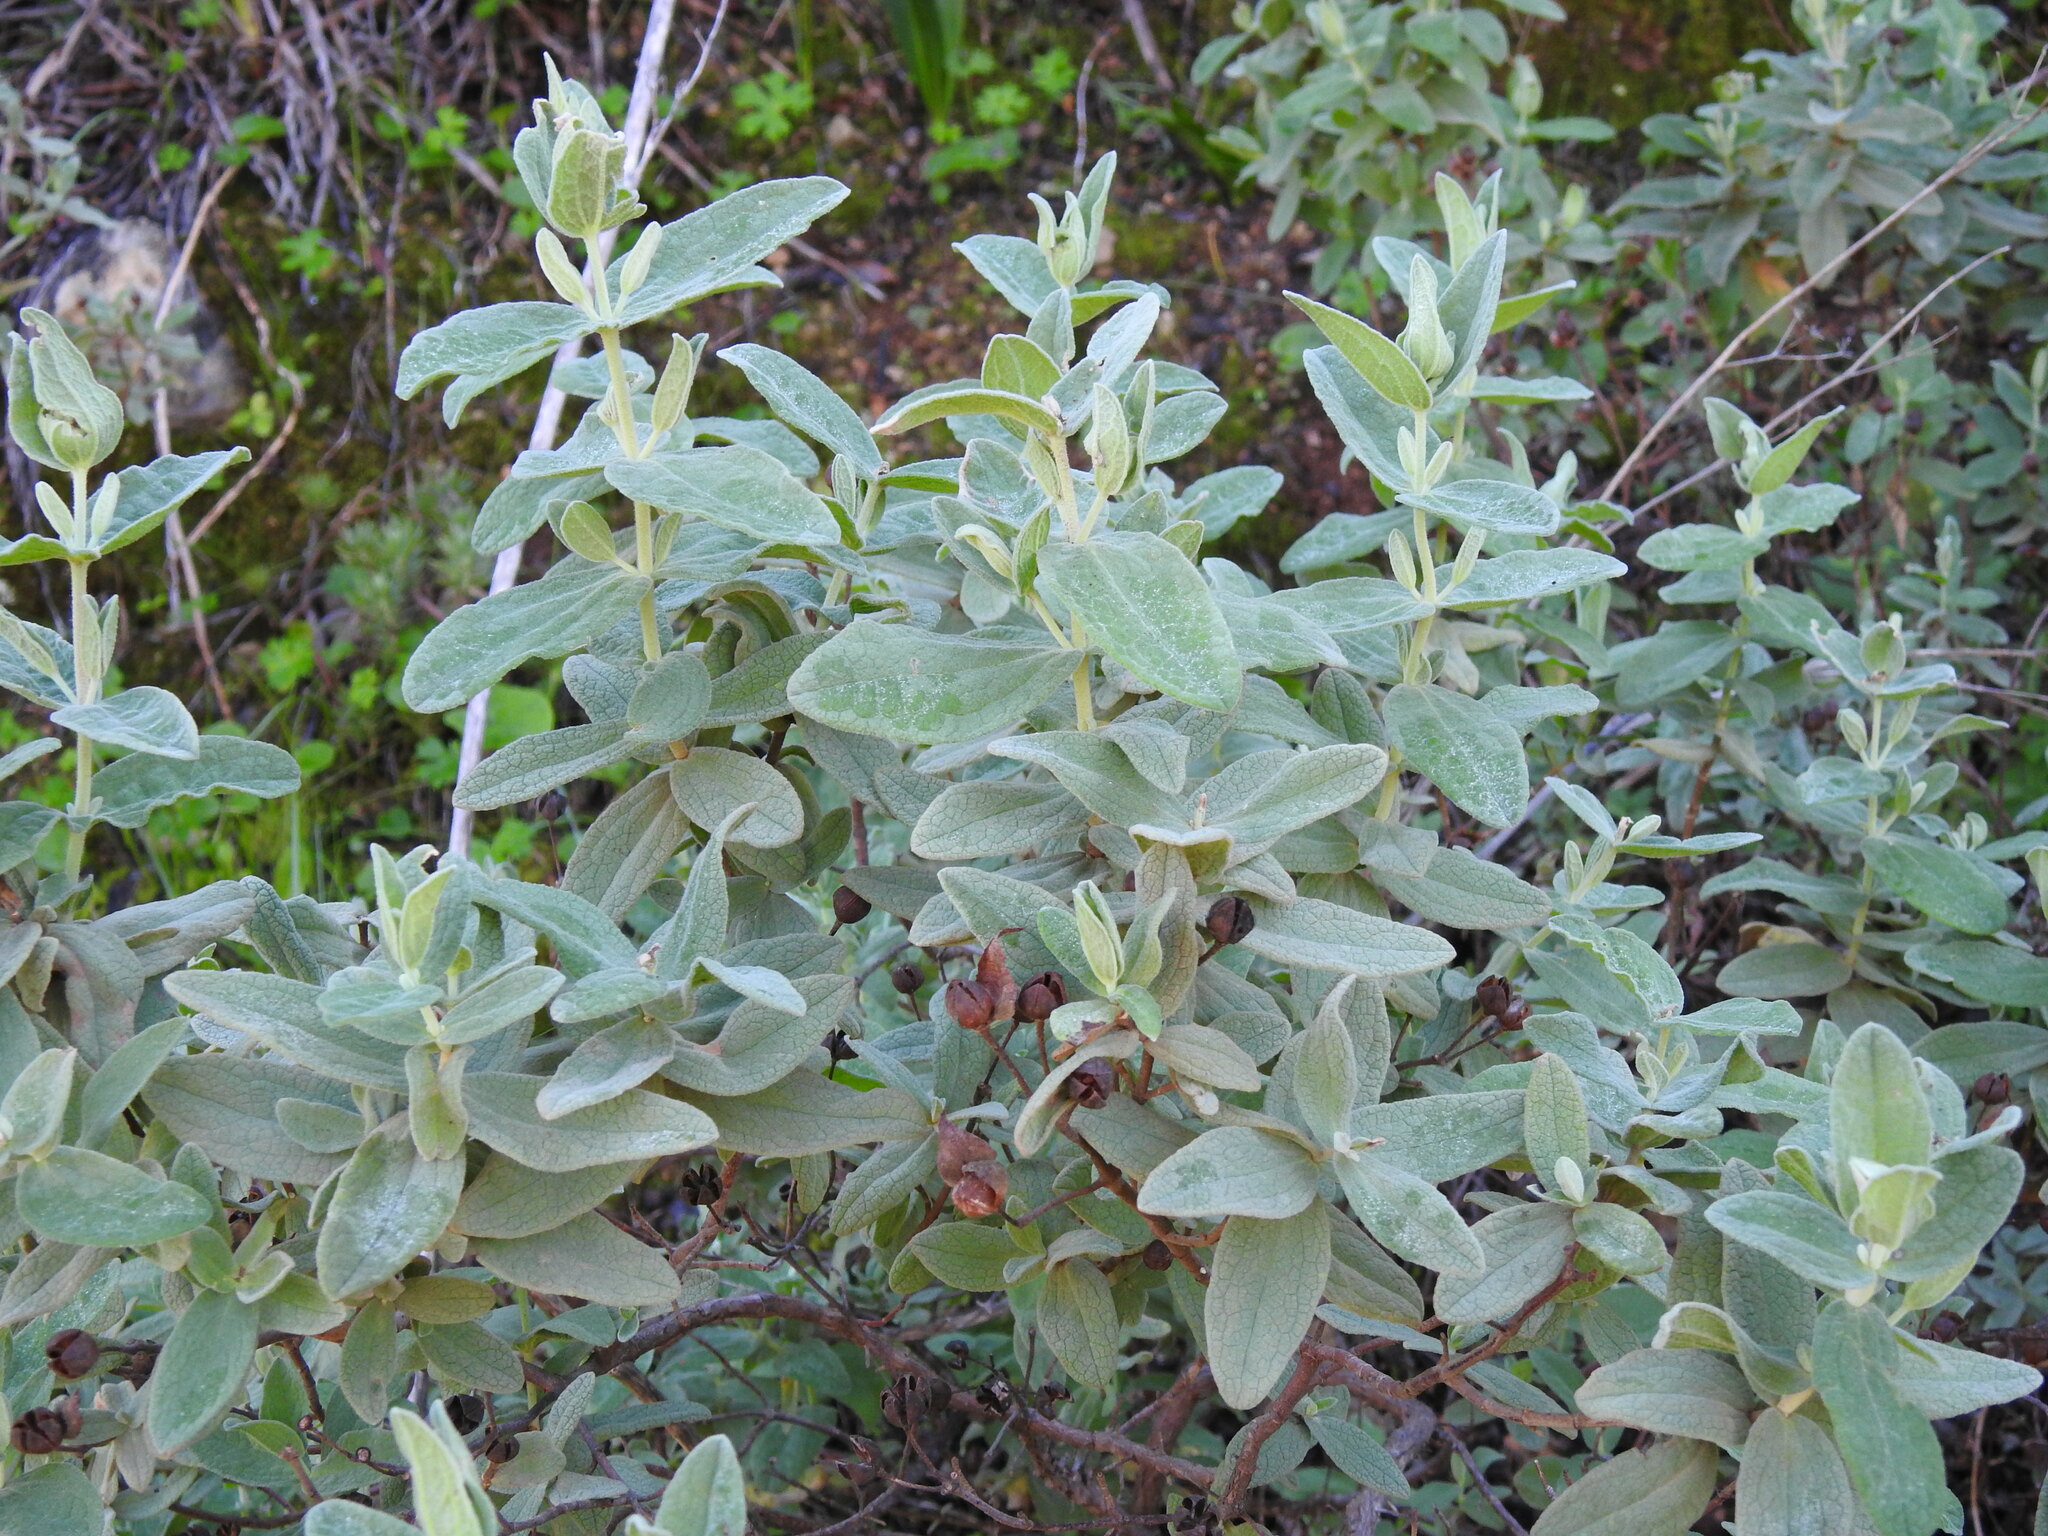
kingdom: Plantae
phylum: Tracheophyta
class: Magnoliopsida
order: Malvales
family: Cistaceae
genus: Cistus
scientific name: Cistus albidus
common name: White-leaf rock-rose
